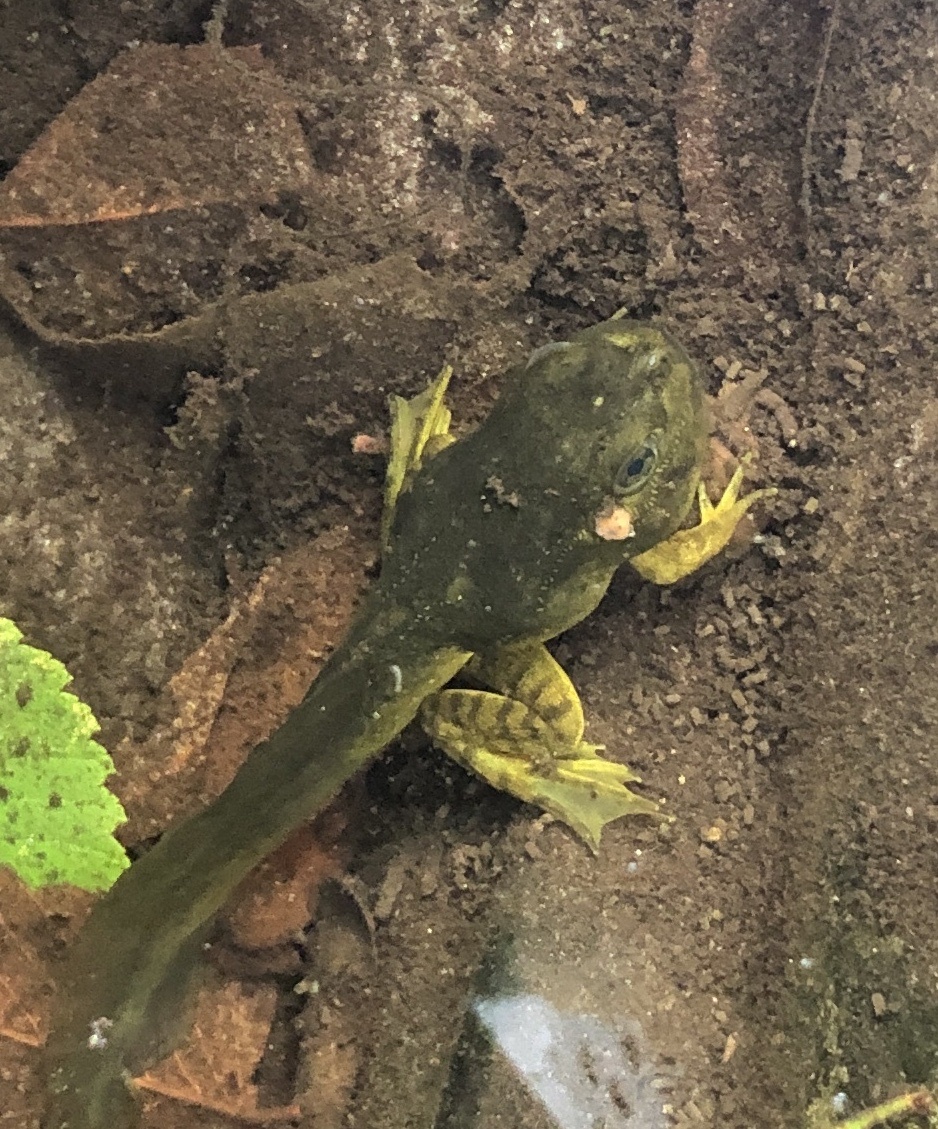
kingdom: Animalia
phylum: Chordata
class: Amphibia
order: Anura
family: Ranidae
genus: Lithobates
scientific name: Lithobates catesbeianus
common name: American bullfrog
